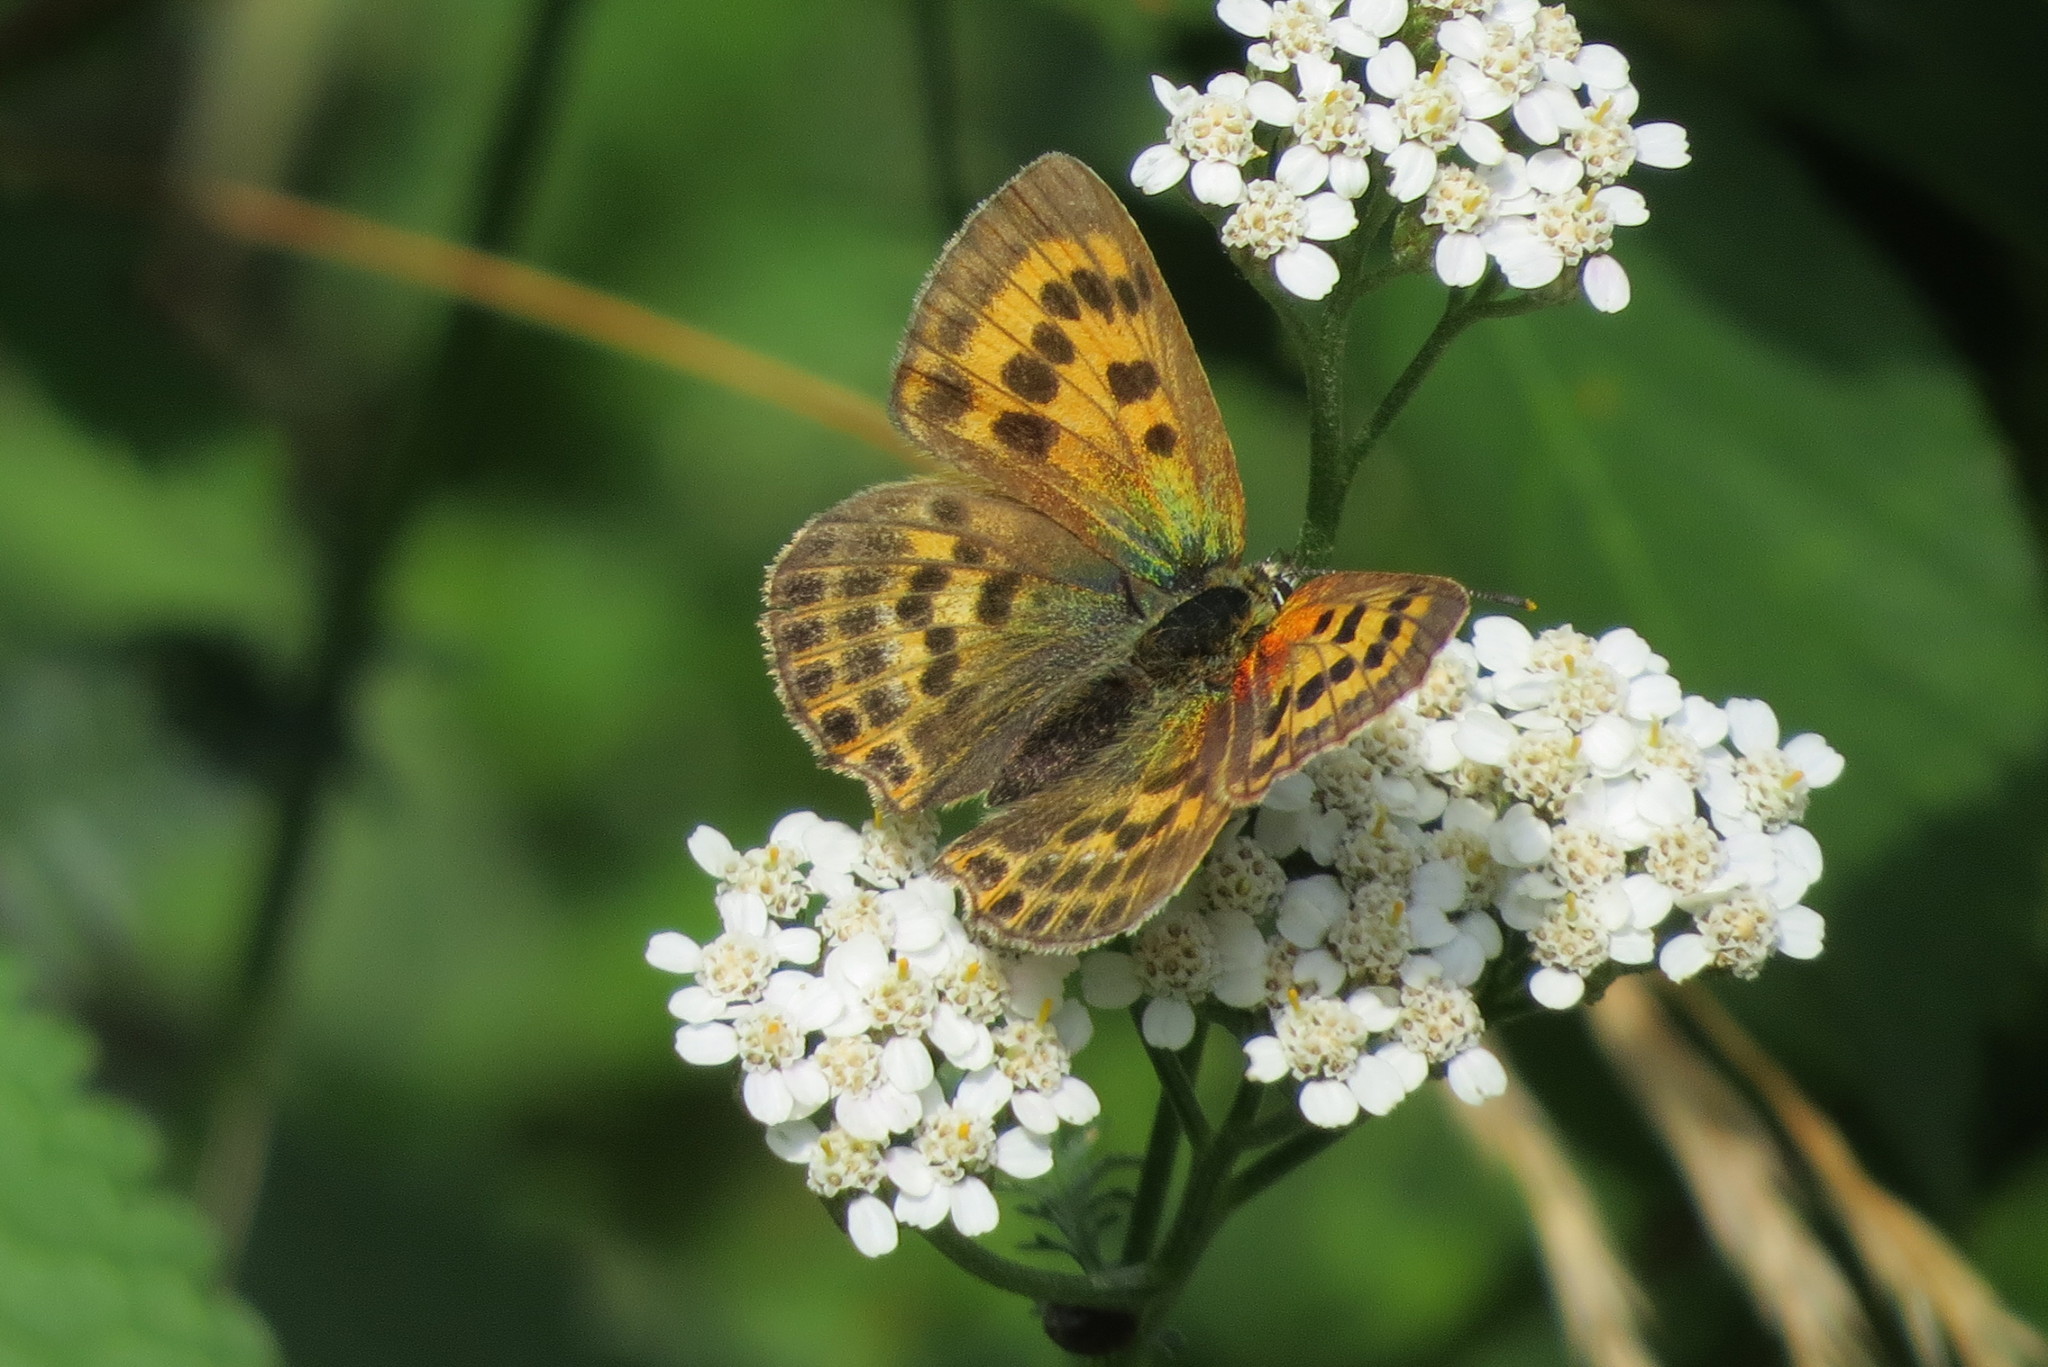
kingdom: Animalia
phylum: Arthropoda
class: Insecta
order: Lepidoptera
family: Lycaenidae
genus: Lycaena
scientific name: Lycaena virgaureae
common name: Scarce copper
